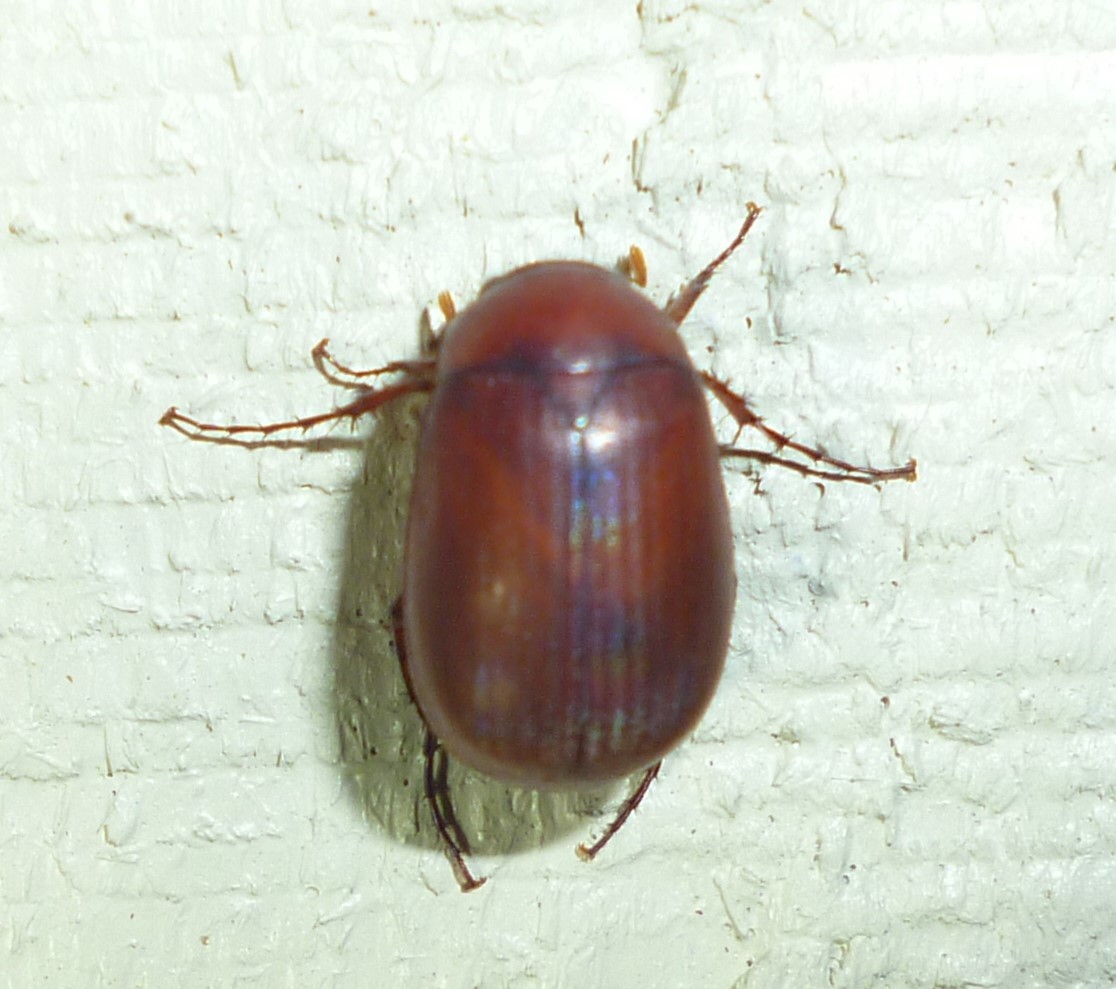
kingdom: Animalia
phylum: Arthropoda
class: Insecta
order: Coleoptera
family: Scarabaeidae
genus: Maladera
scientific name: Maladera formosae
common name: Asiatic garden beetle
